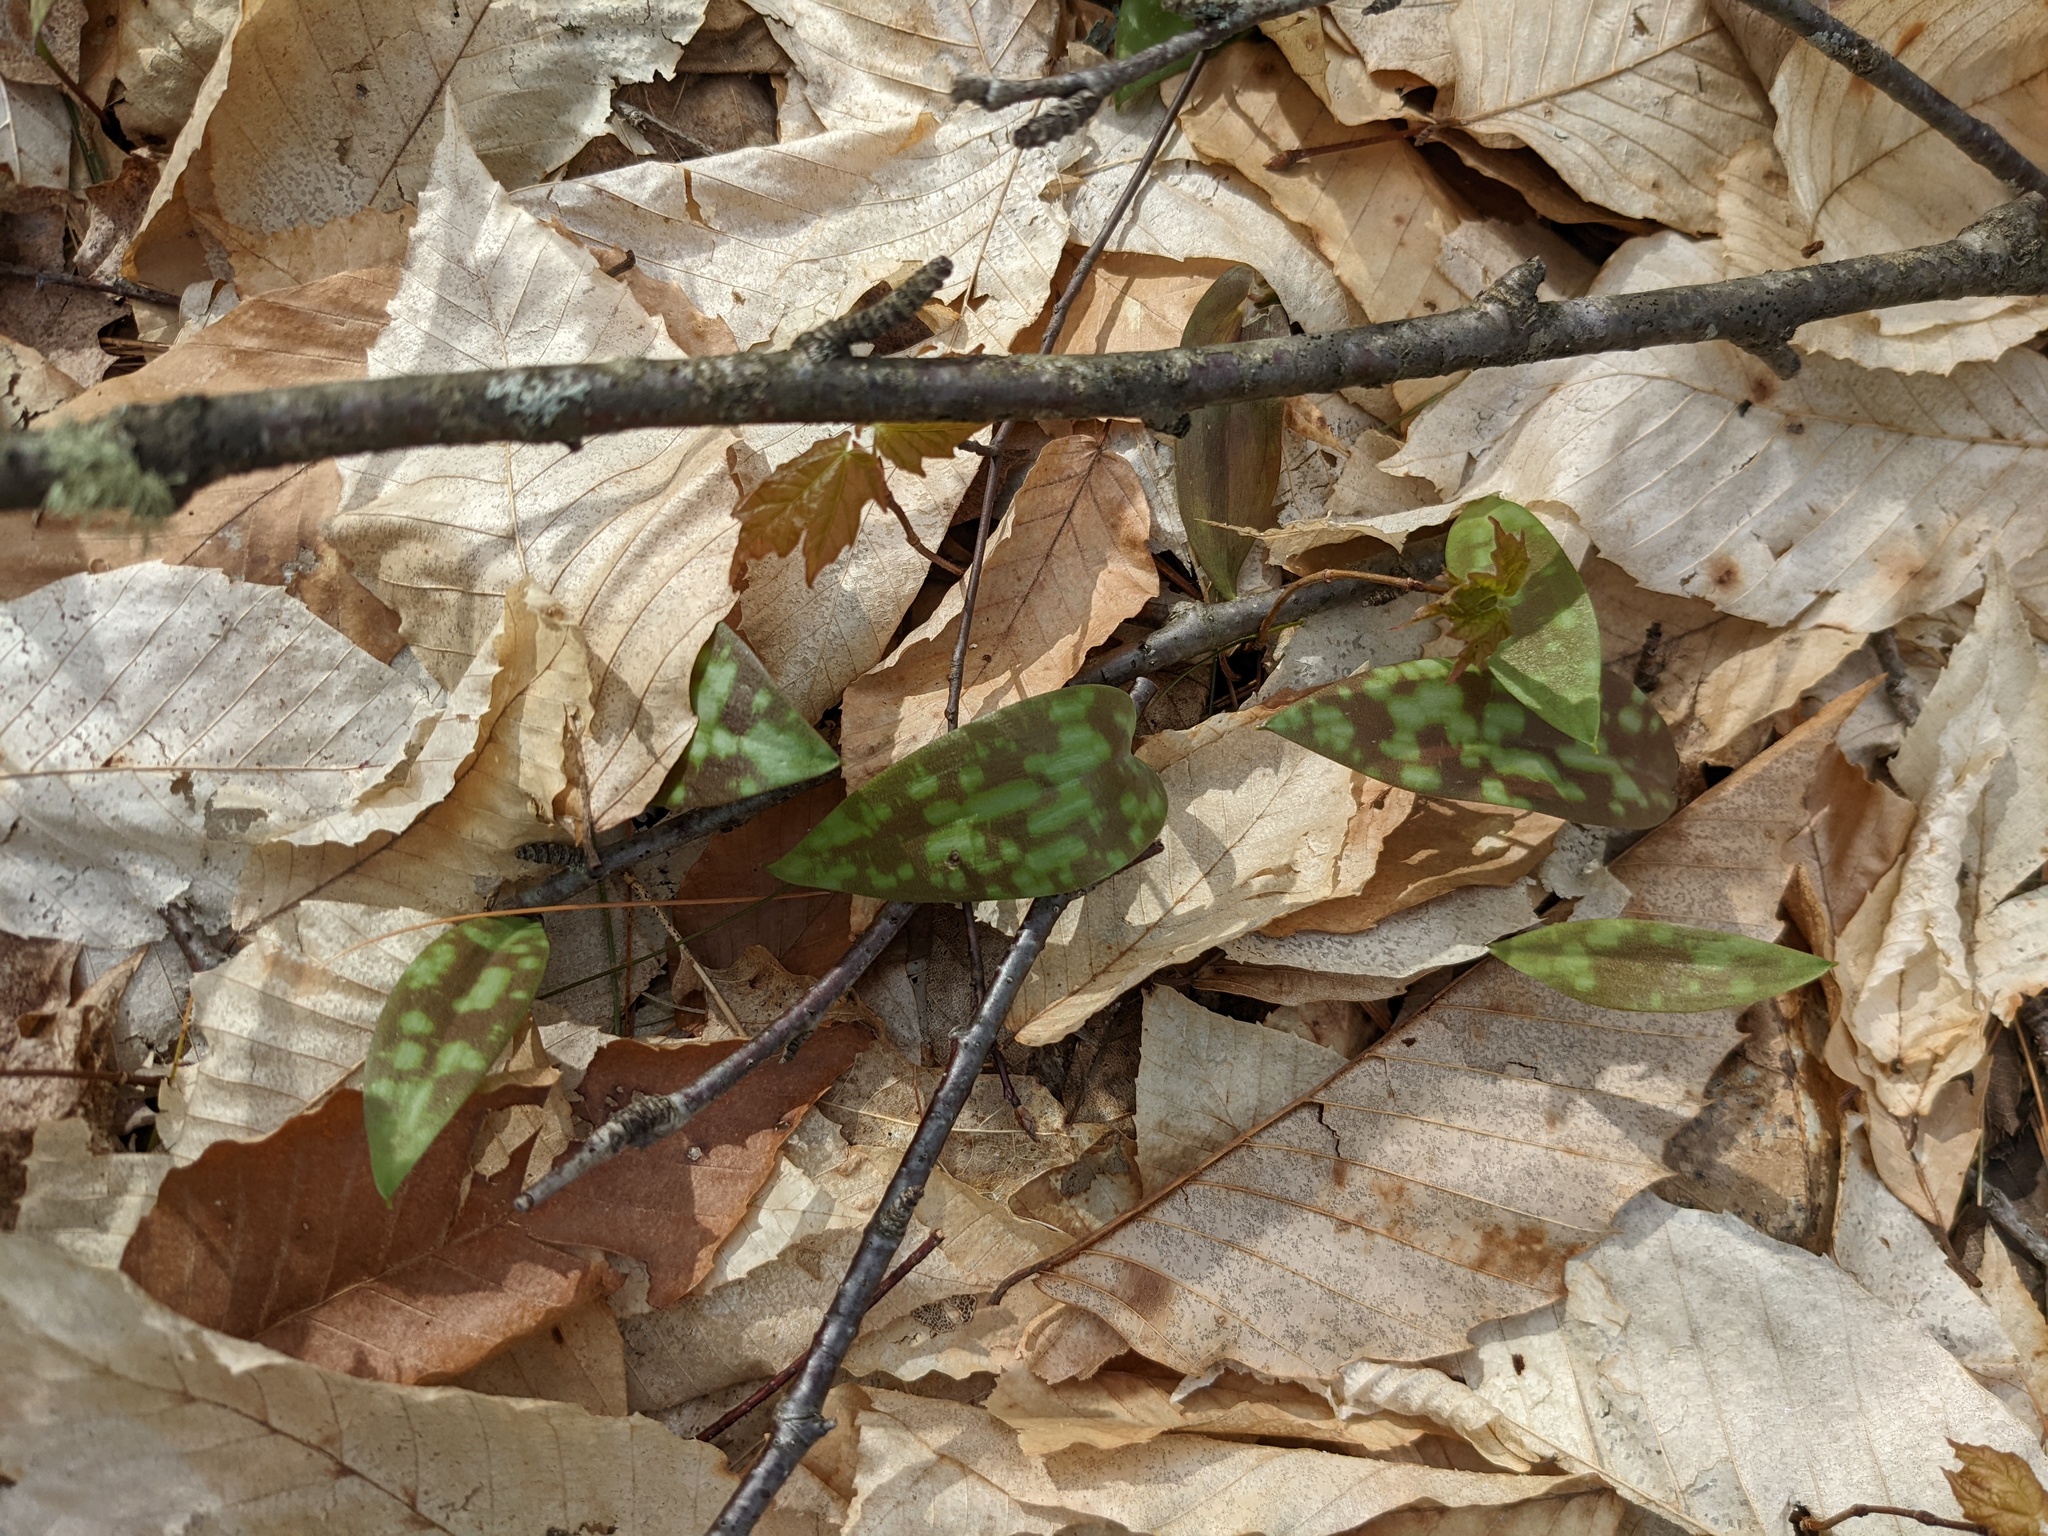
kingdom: Plantae
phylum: Tracheophyta
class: Liliopsida
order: Liliales
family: Liliaceae
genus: Erythronium
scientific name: Erythronium americanum
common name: Yellow adder's-tongue
